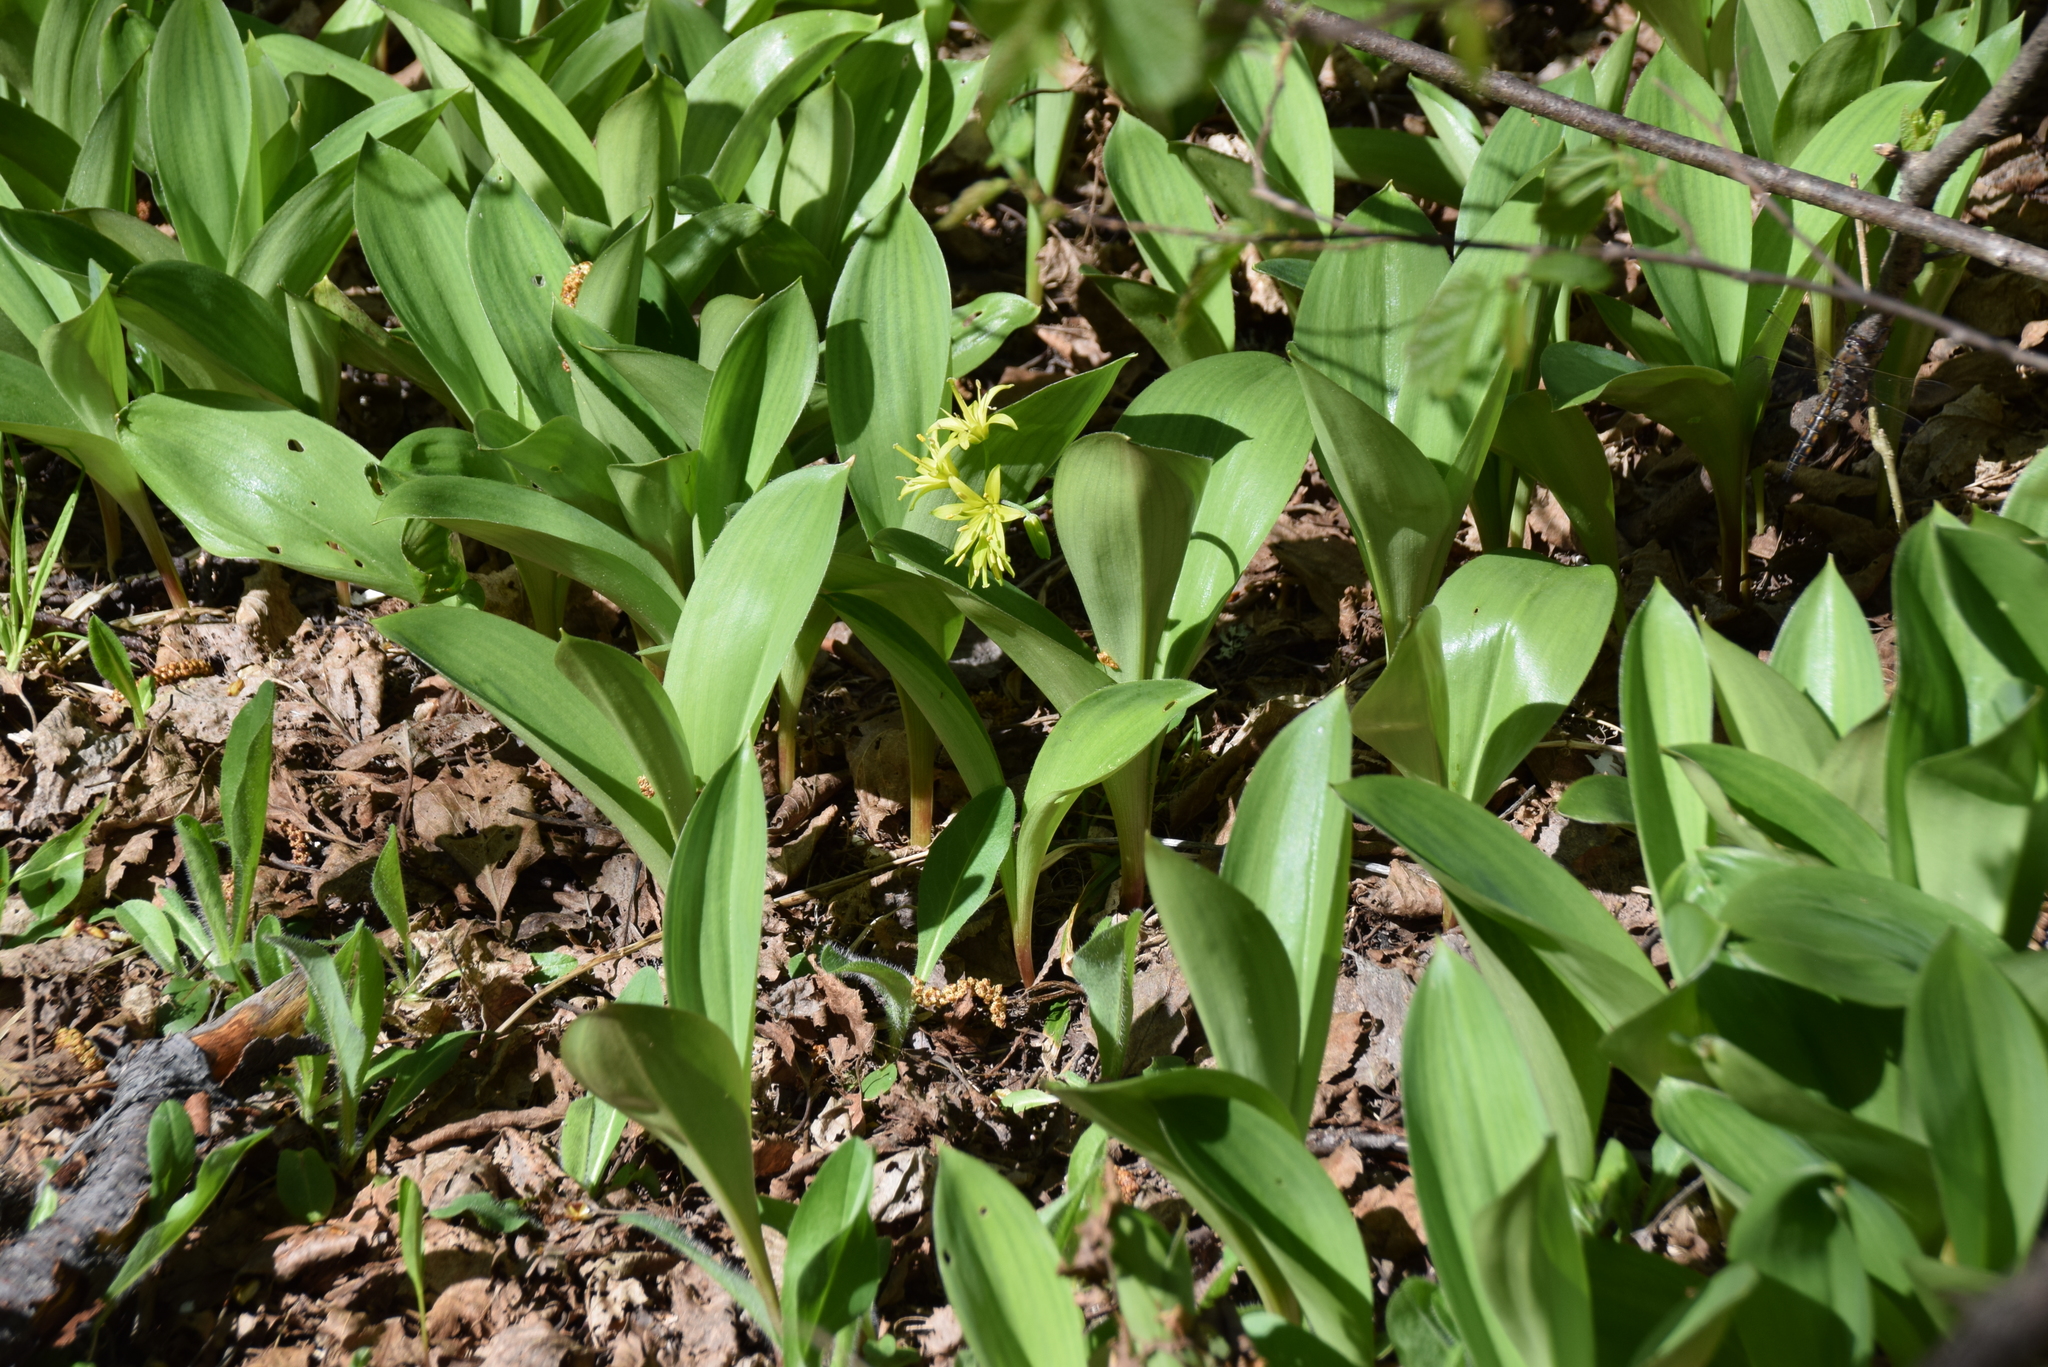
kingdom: Plantae
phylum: Tracheophyta
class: Liliopsida
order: Liliales
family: Liliaceae
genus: Clintonia
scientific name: Clintonia borealis
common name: Yellow clintonia
